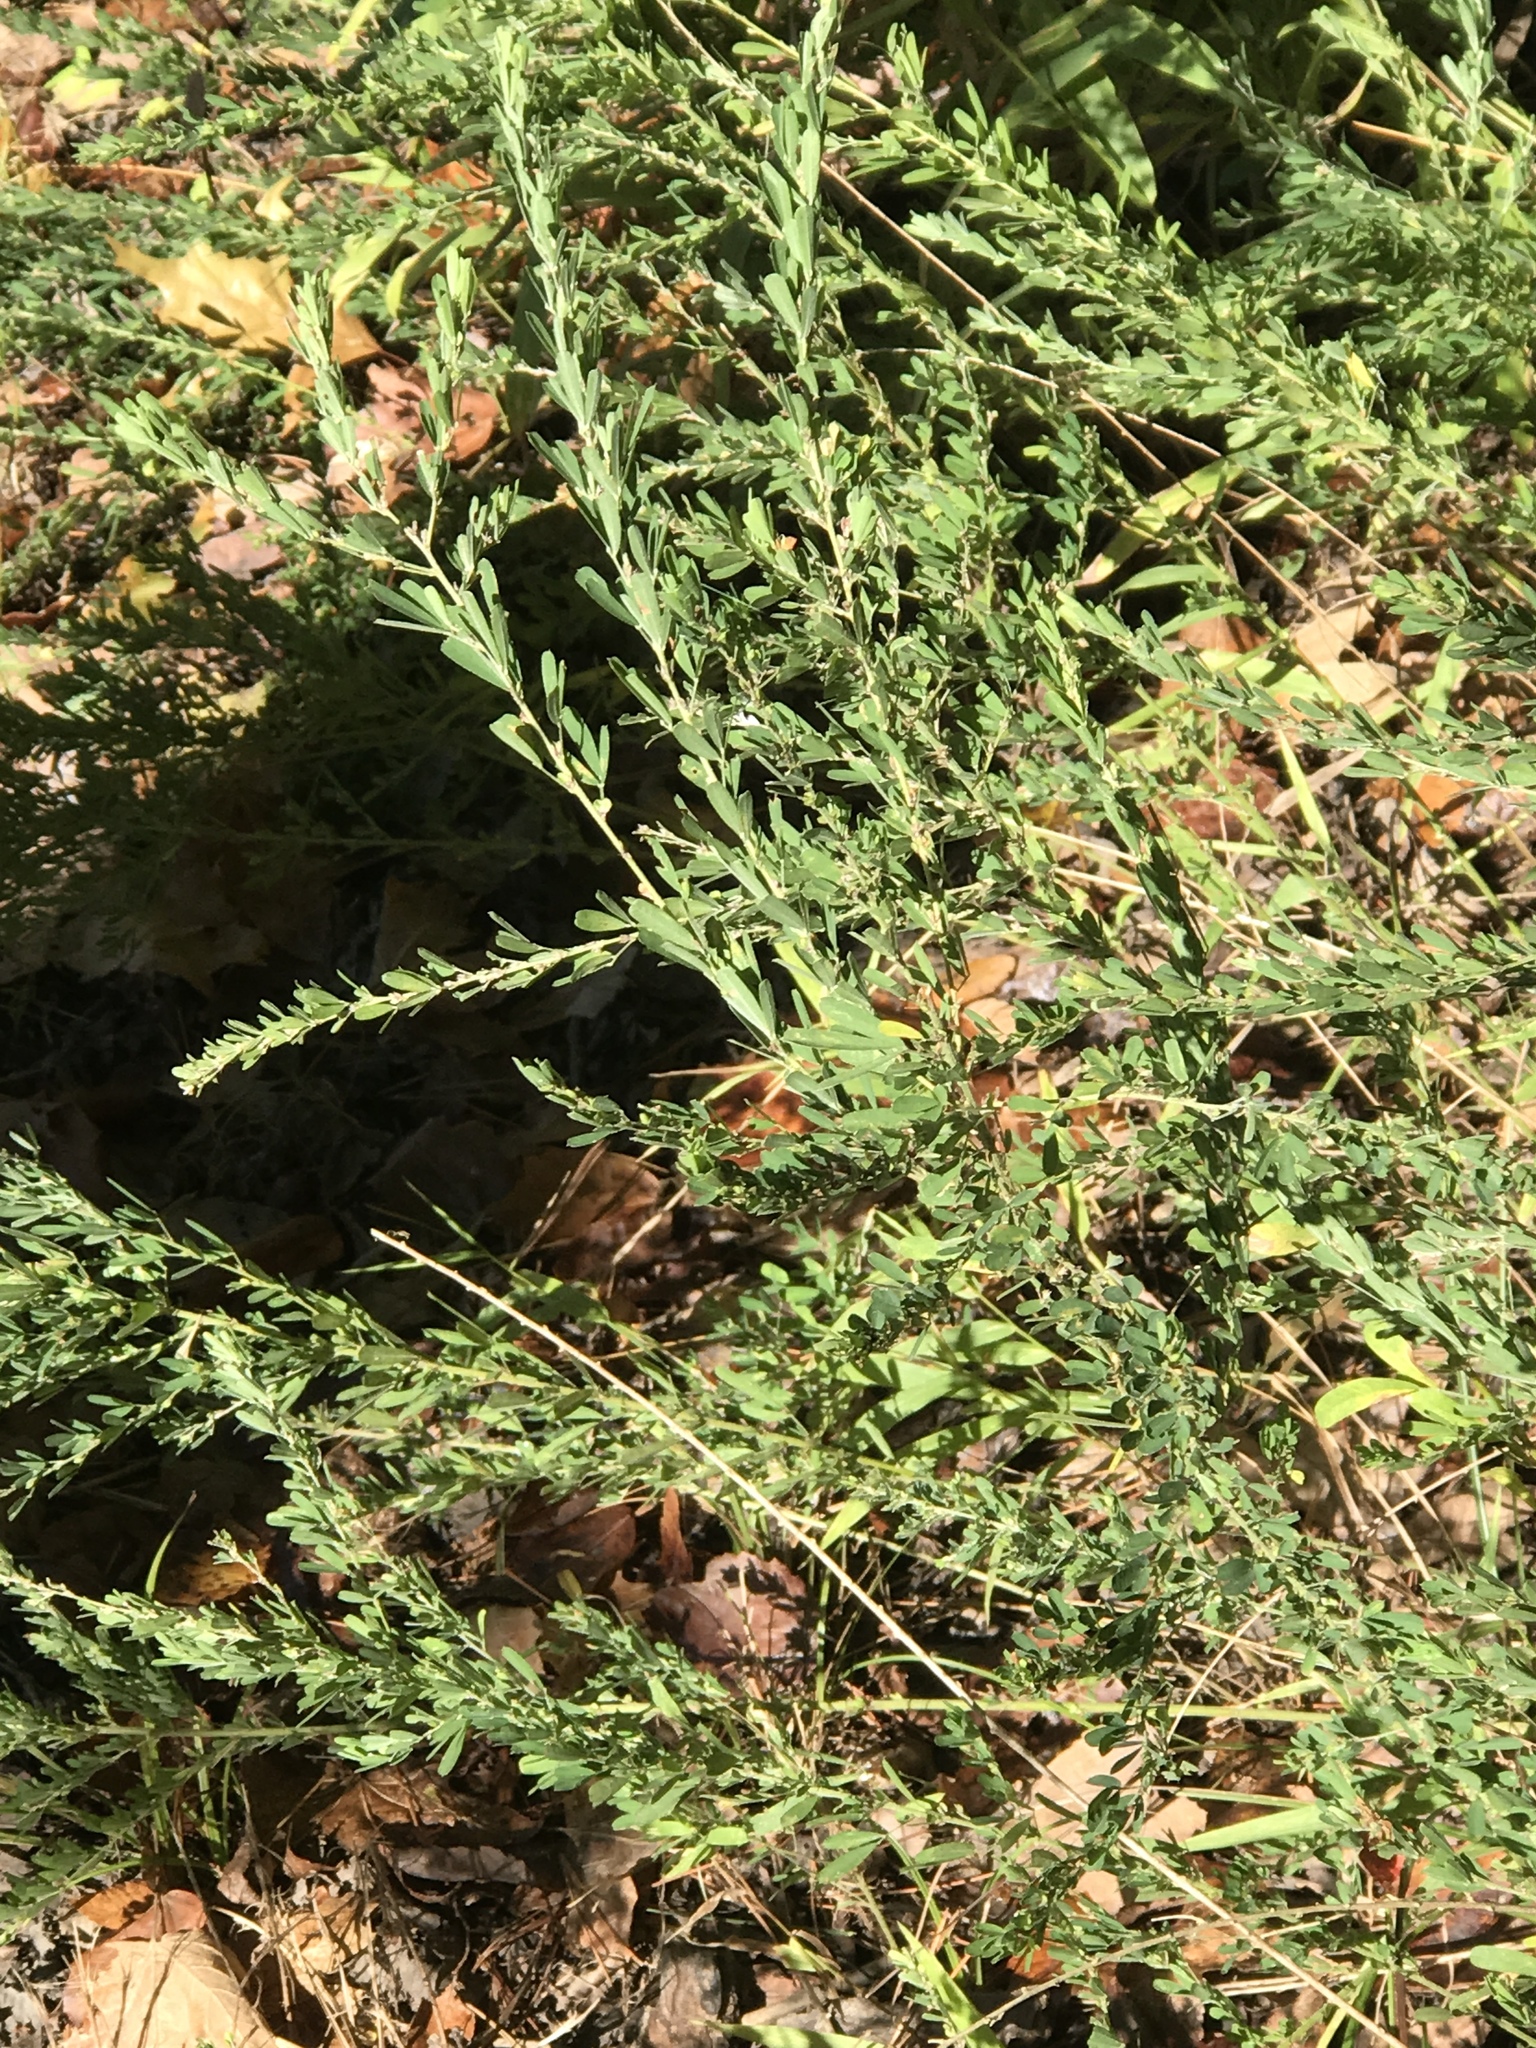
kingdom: Plantae
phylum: Tracheophyta
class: Magnoliopsida
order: Fabales
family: Fabaceae
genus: Lespedeza
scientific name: Lespedeza cuneata
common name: Chinese bush-clover
